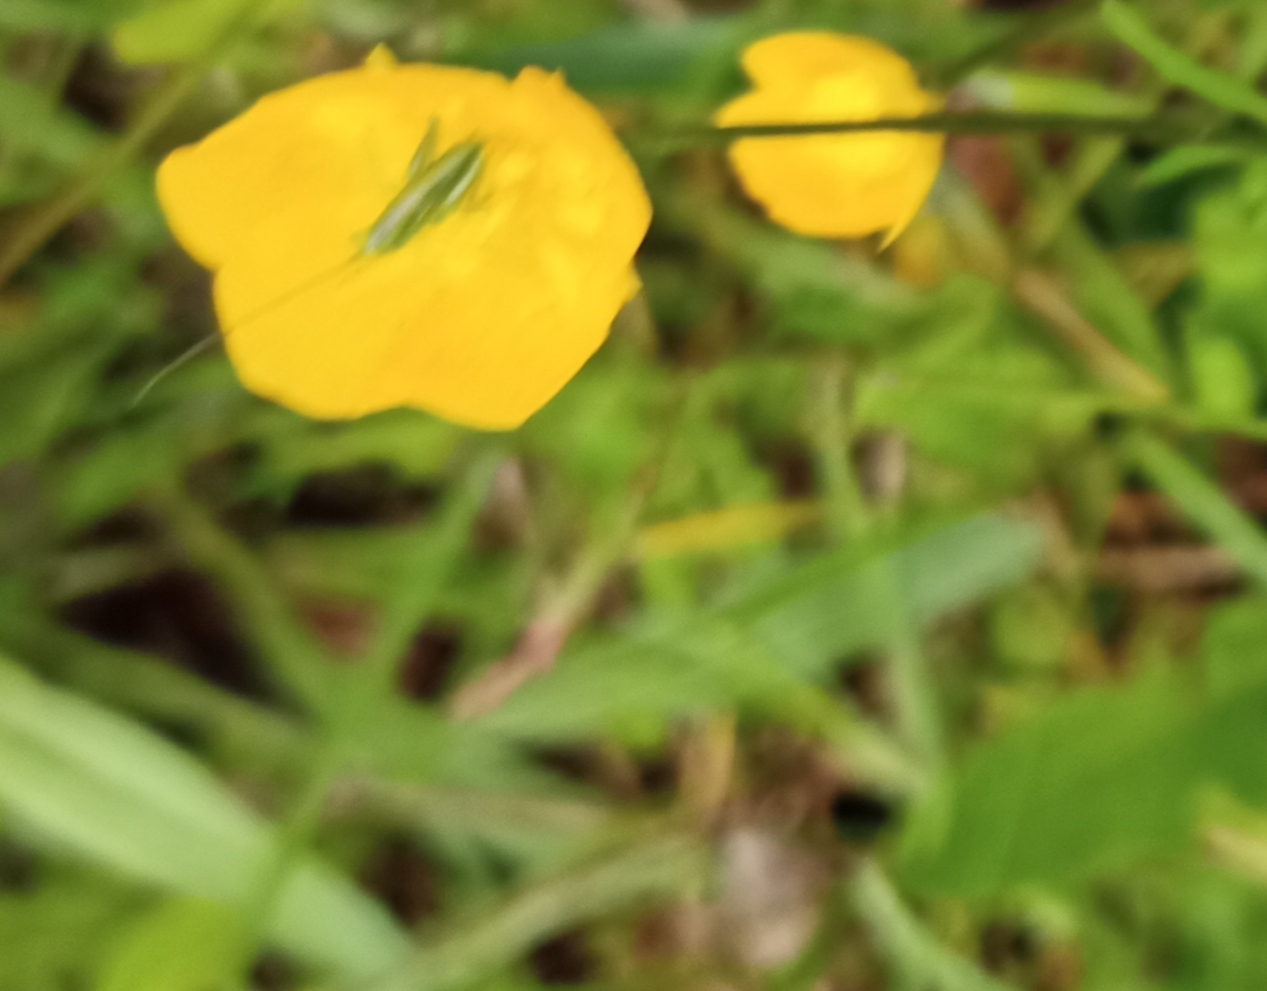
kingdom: Animalia
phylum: Arthropoda
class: Insecta
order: Orthoptera
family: Tettigoniidae
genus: Tettigonia
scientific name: Tettigonia viridissima
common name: Great green bush-cricket
